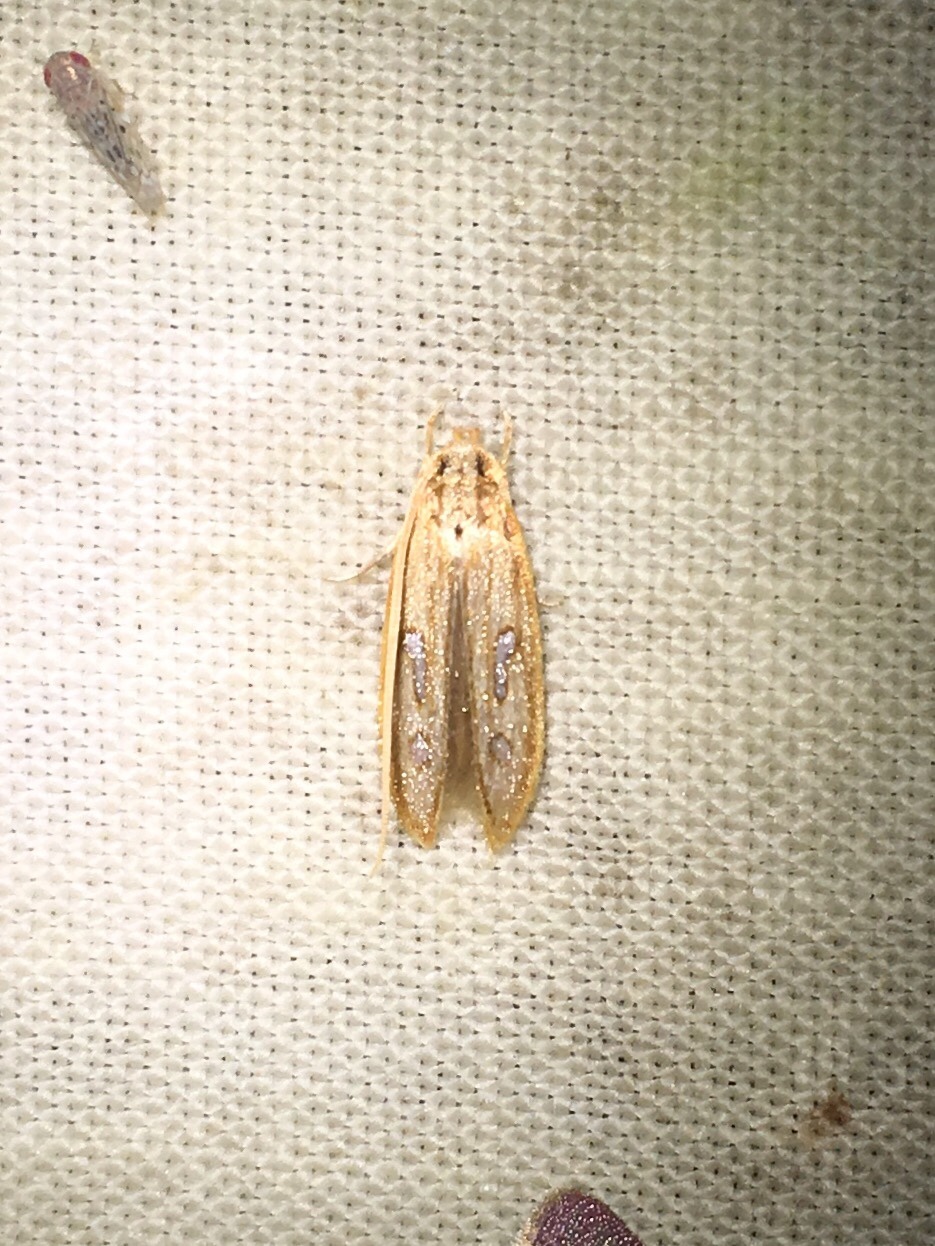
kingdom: Animalia
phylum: Arthropoda
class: Insecta
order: Lepidoptera
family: Coleophoridae
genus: Homaledra
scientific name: Homaledra heptathalama
